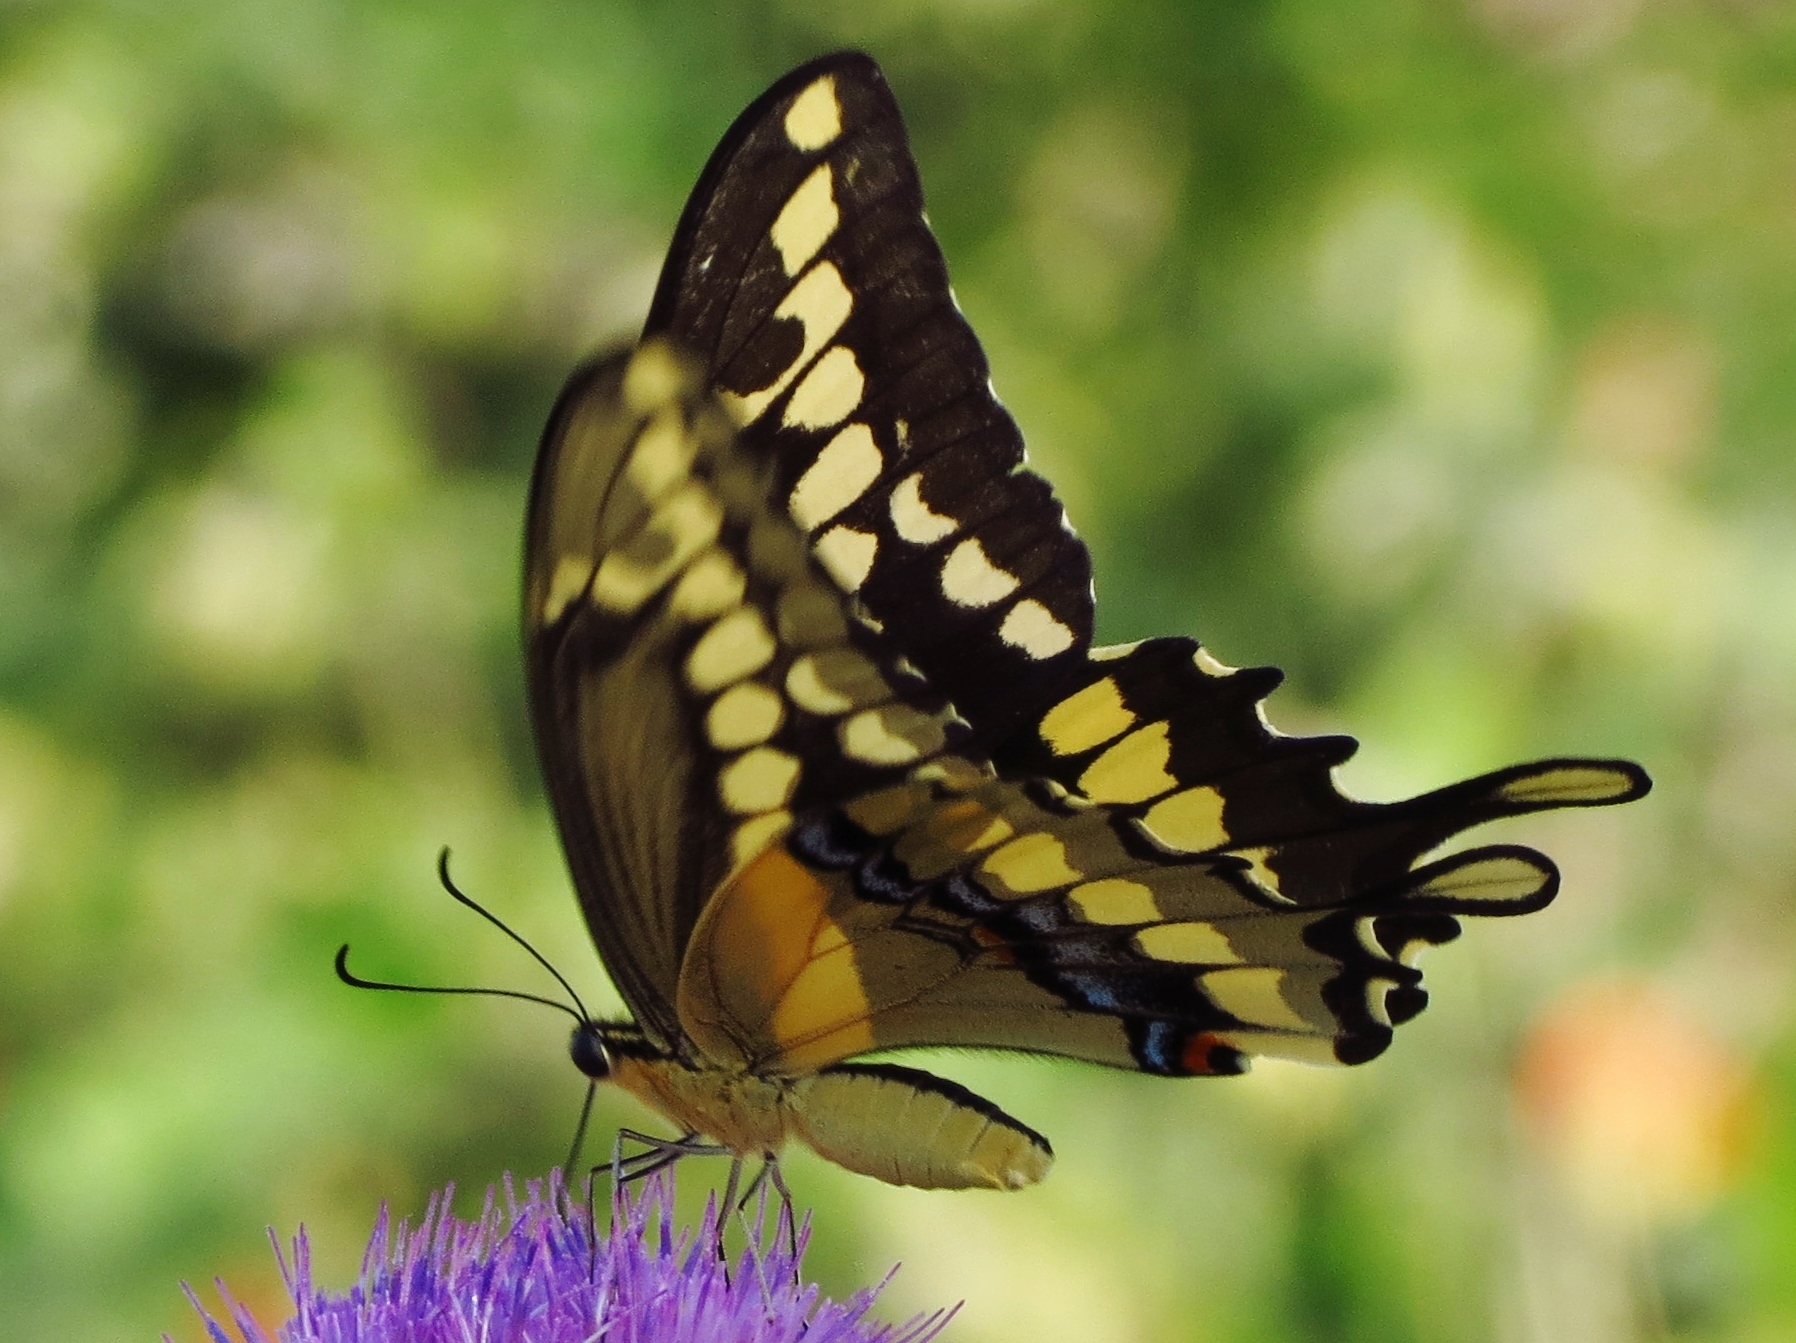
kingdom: Animalia
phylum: Arthropoda
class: Insecta
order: Lepidoptera
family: Papilionidae
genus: Papilio
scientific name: Papilio rumiko
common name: Western giant swallowtail
